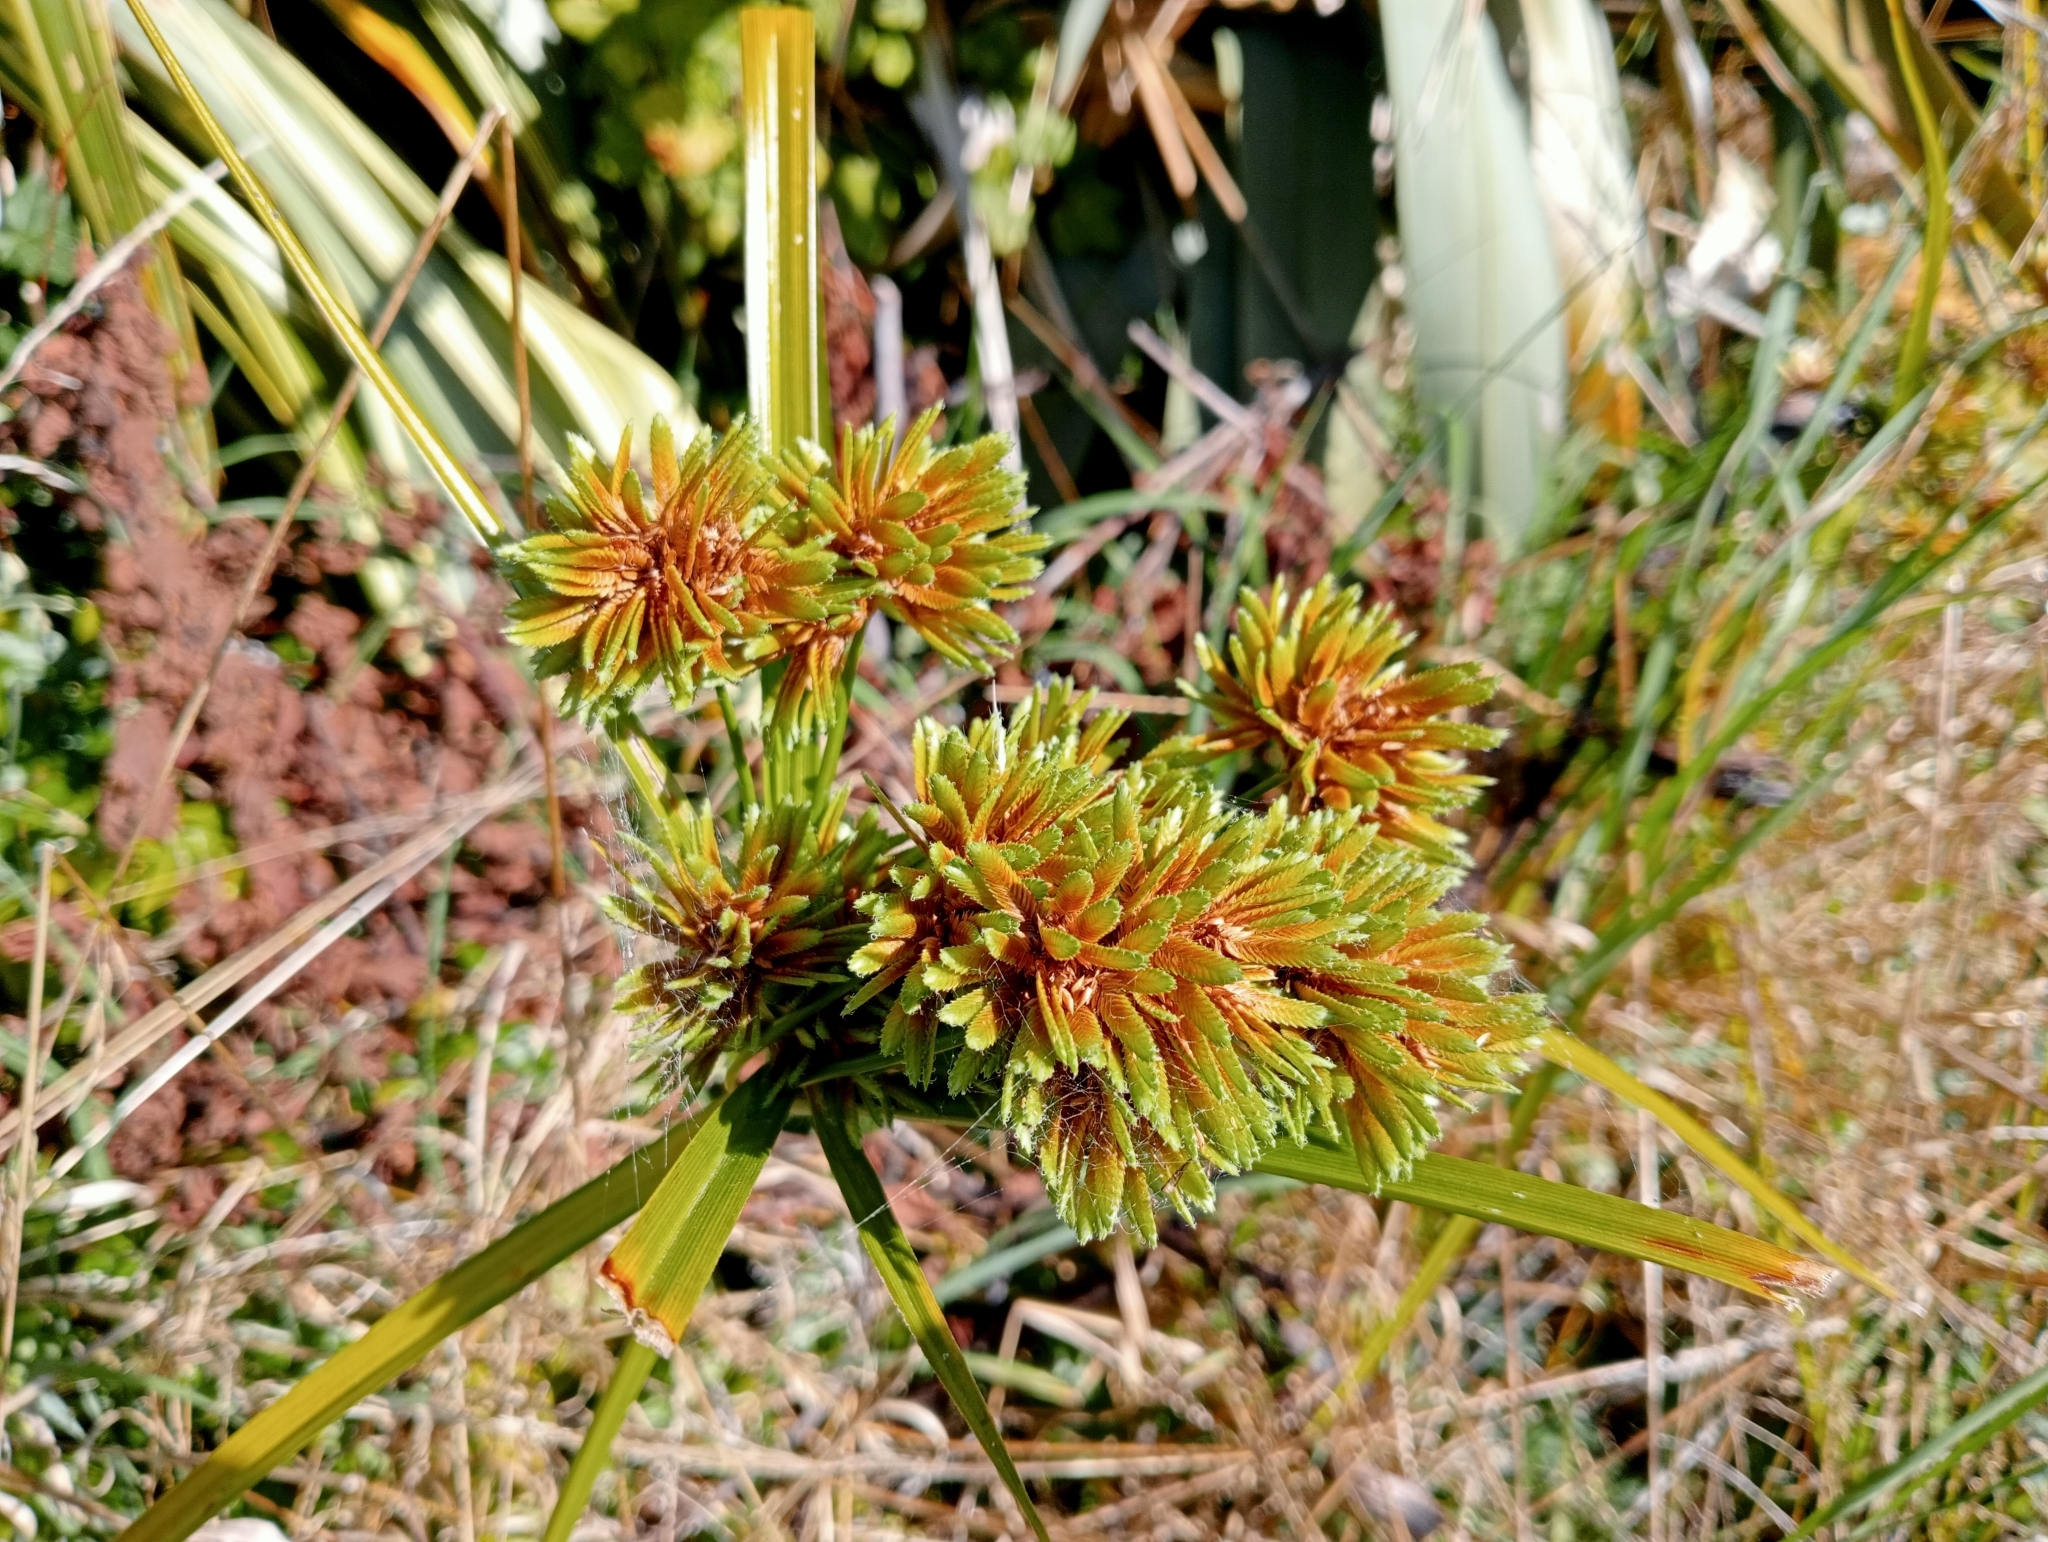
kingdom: Plantae
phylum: Tracheophyta
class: Liliopsida
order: Poales
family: Cyperaceae
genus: Cyperus
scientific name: Cyperus eragrostis
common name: Tall flatsedge
